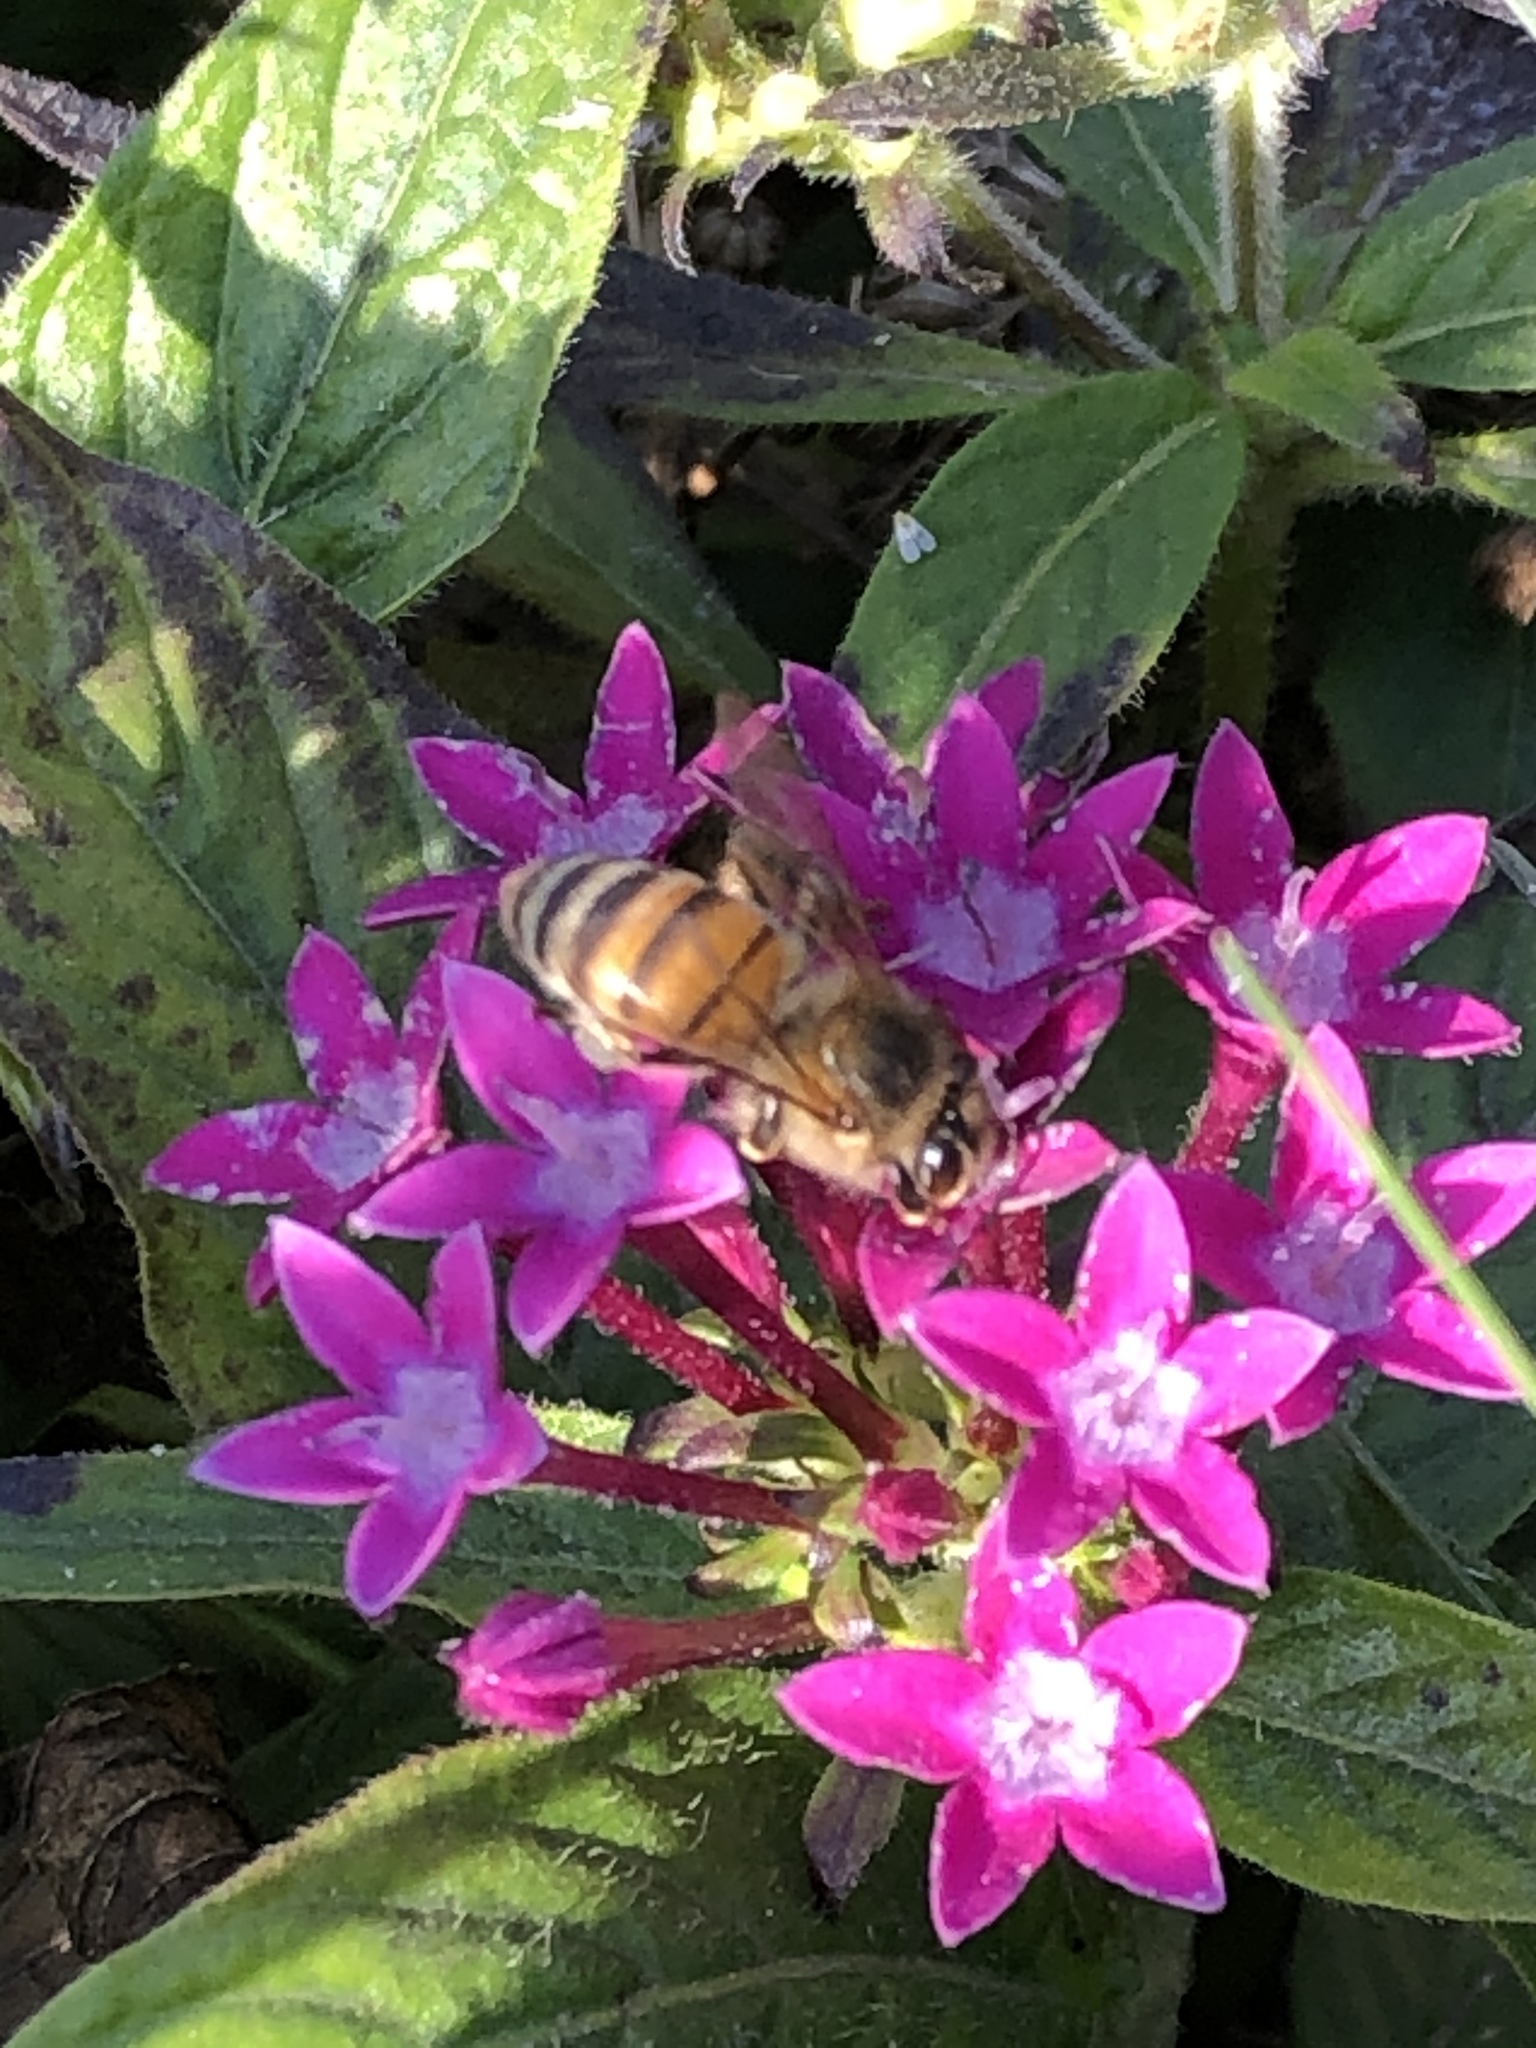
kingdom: Animalia
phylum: Arthropoda
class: Insecta
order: Hymenoptera
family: Apidae
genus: Apis
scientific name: Apis mellifera
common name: Honey bee
